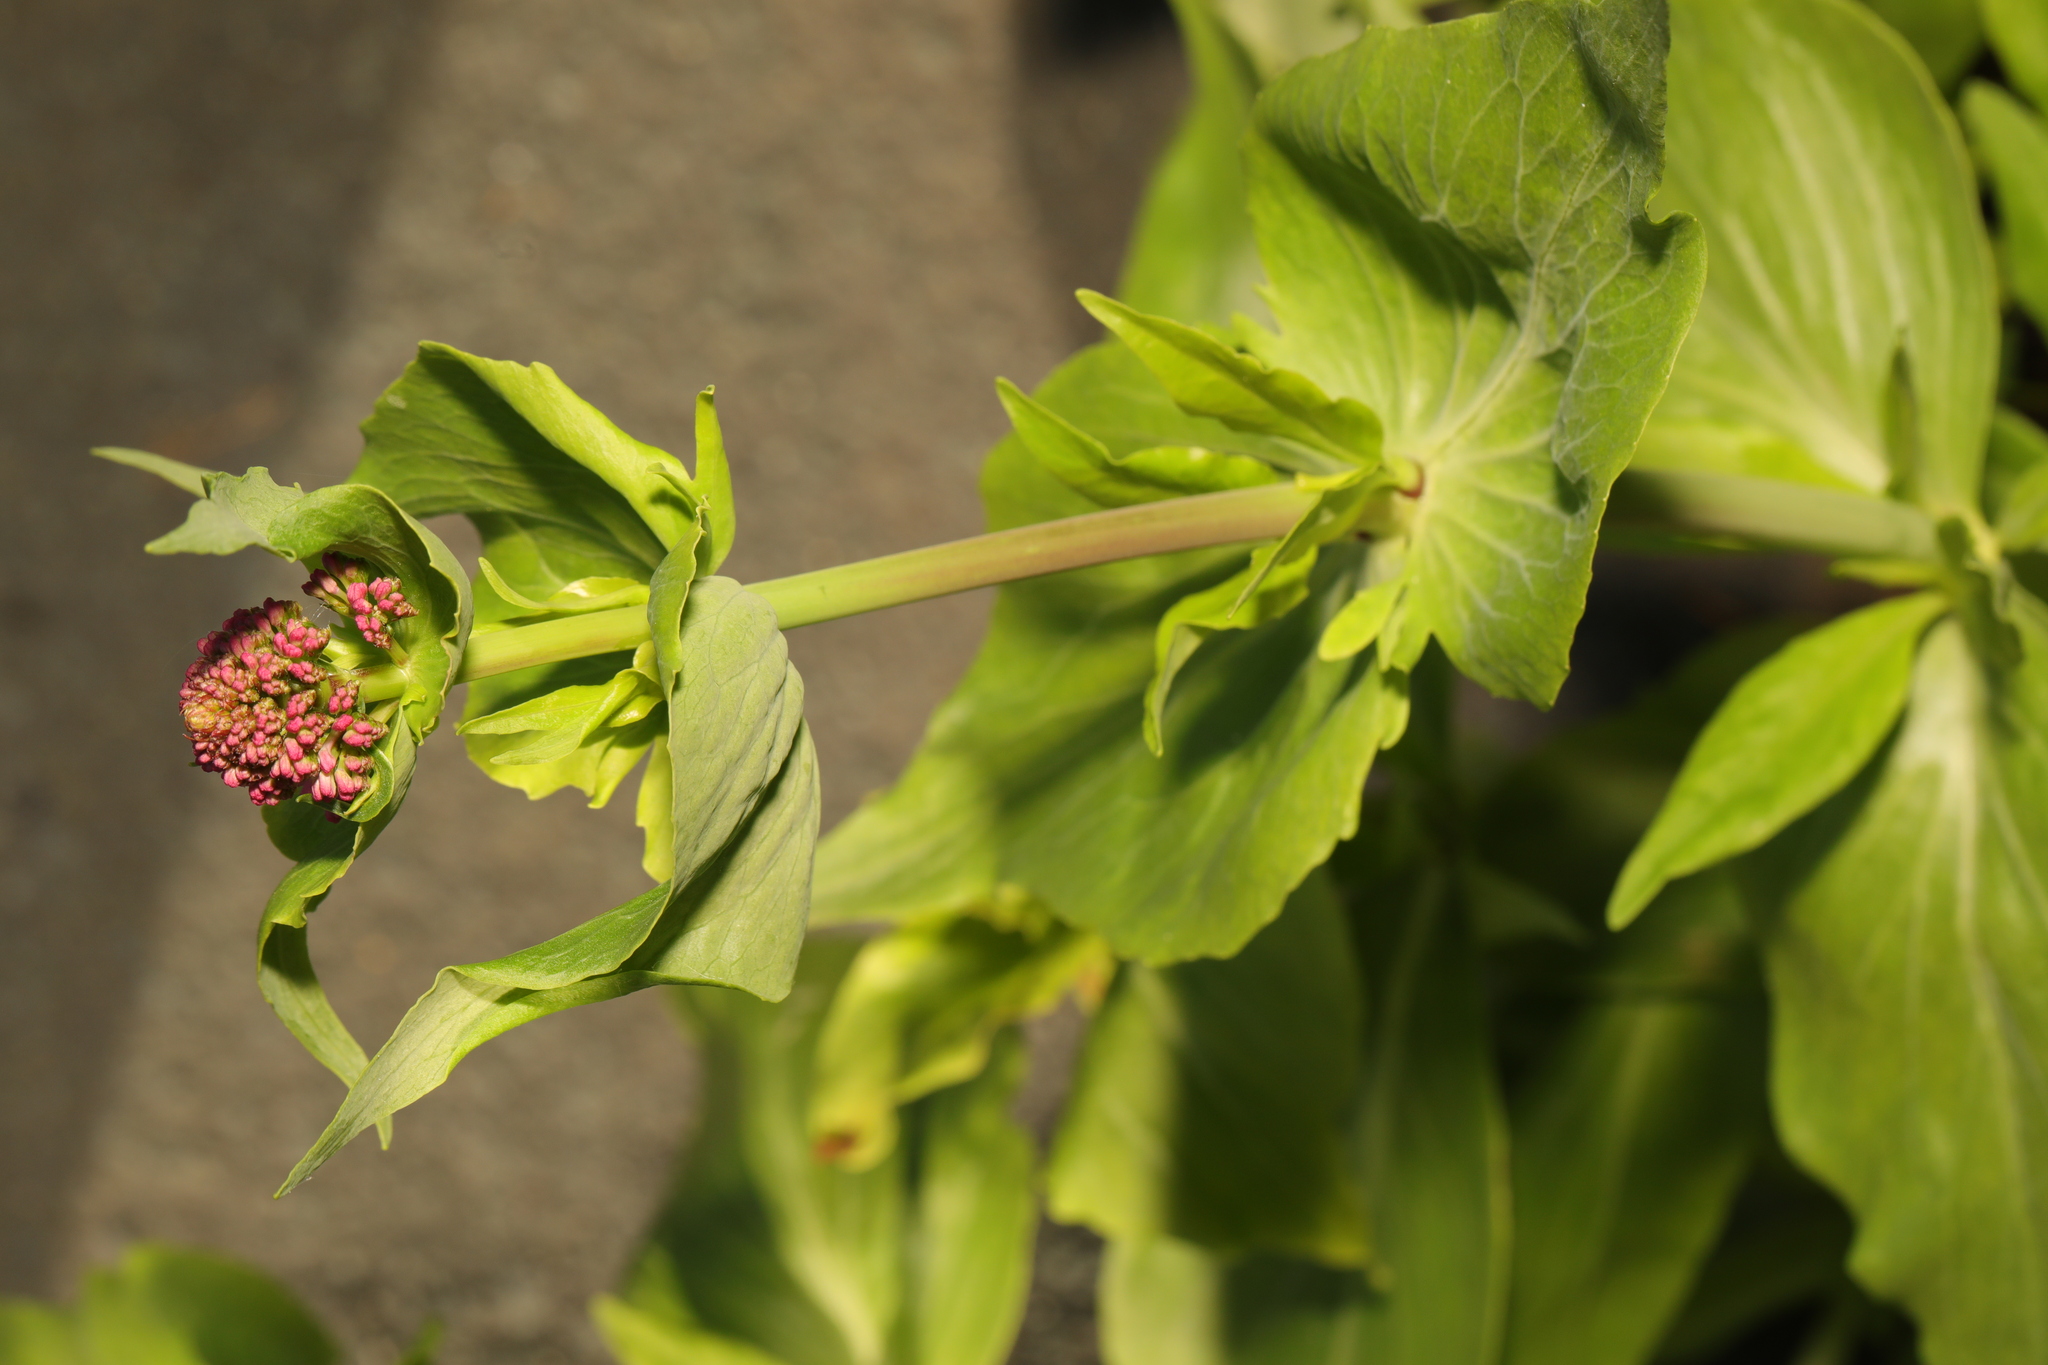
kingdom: Plantae
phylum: Tracheophyta
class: Magnoliopsida
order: Dipsacales
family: Caprifoliaceae
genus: Centranthus
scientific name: Centranthus ruber
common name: Red valerian
